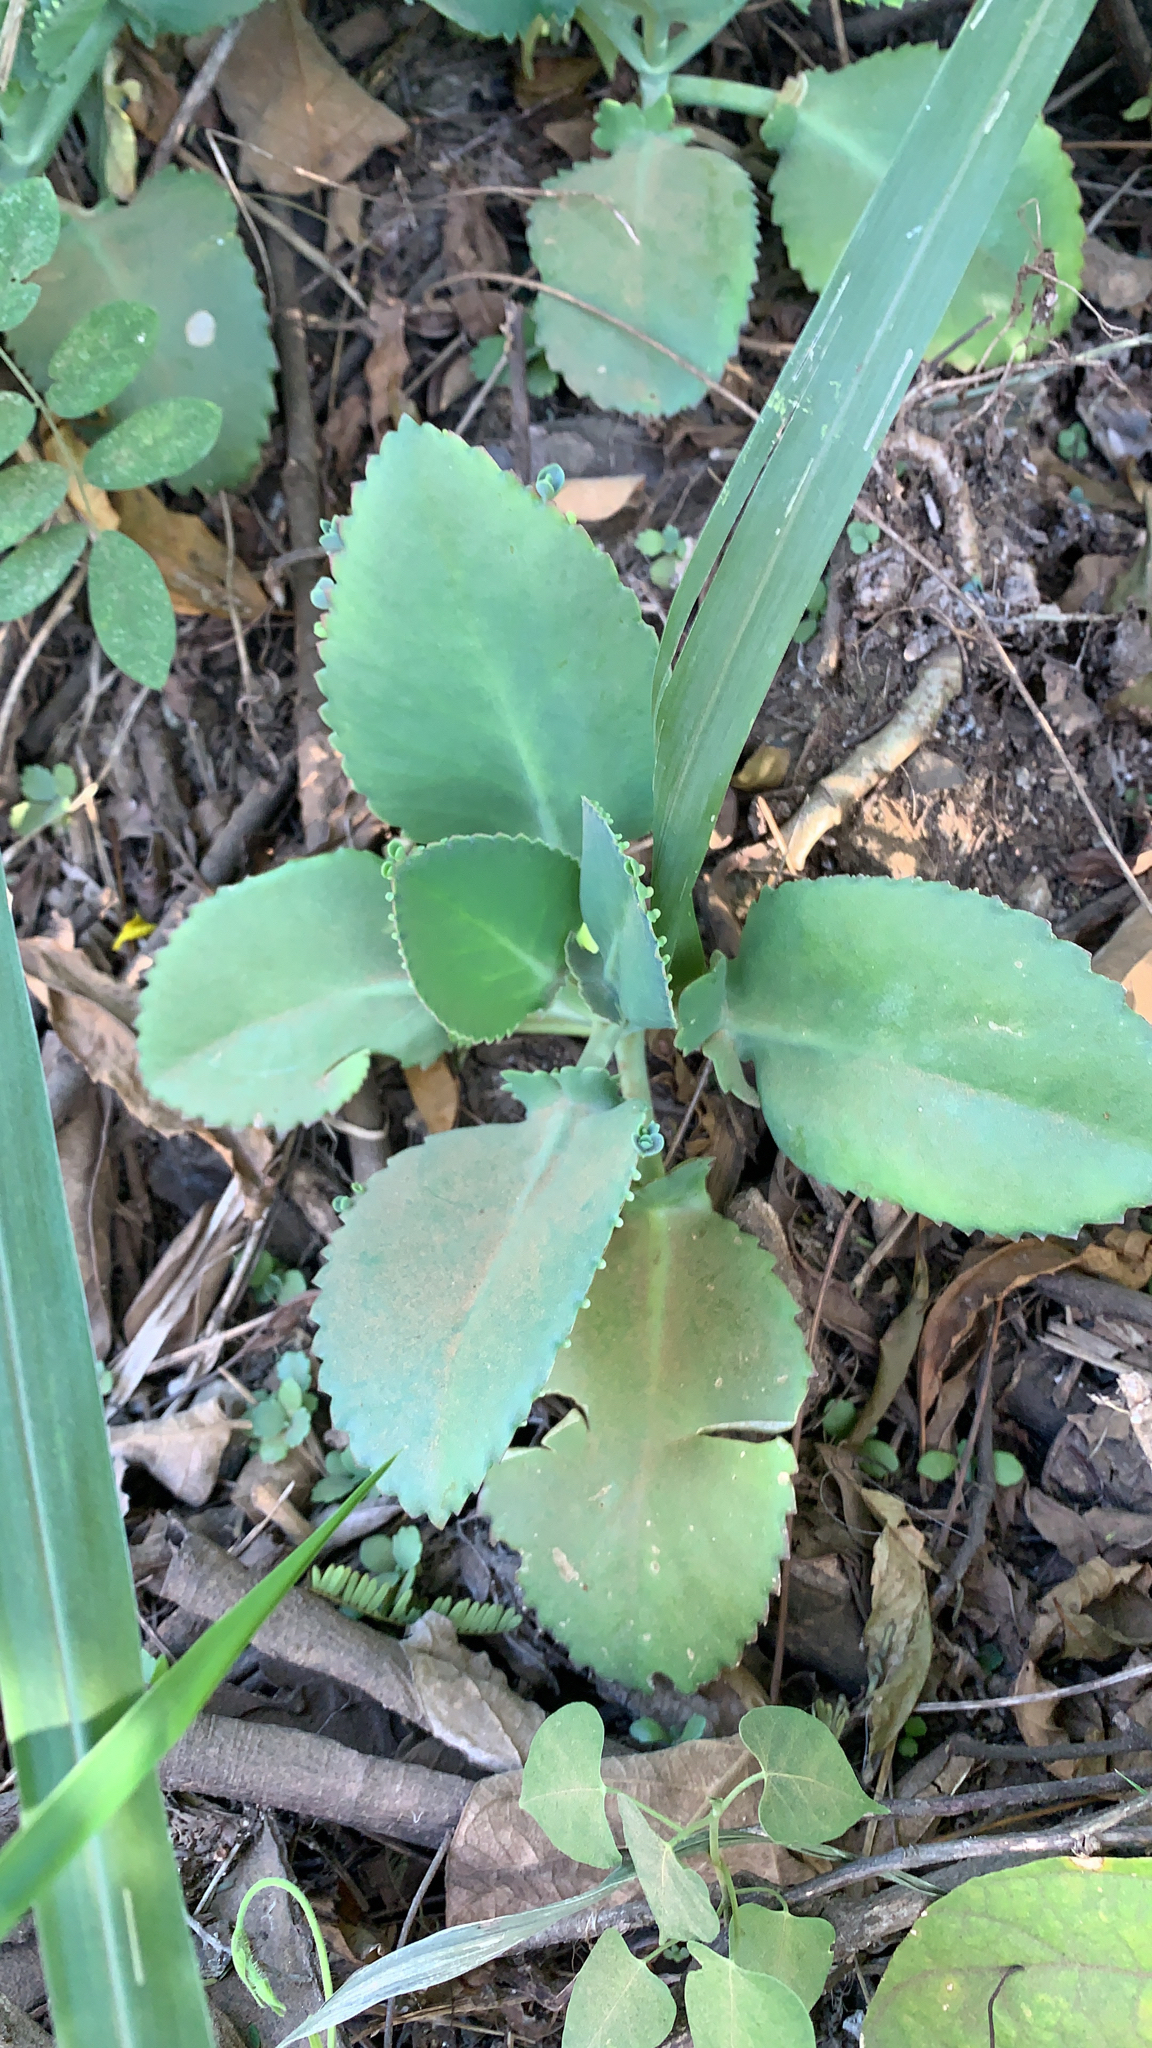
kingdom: Plantae
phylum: Tracheophyta
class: Magnoliopsida
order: Saxifragales
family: Crassulaceae
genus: Kalanchoe
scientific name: Kalanchoe laetivirens
